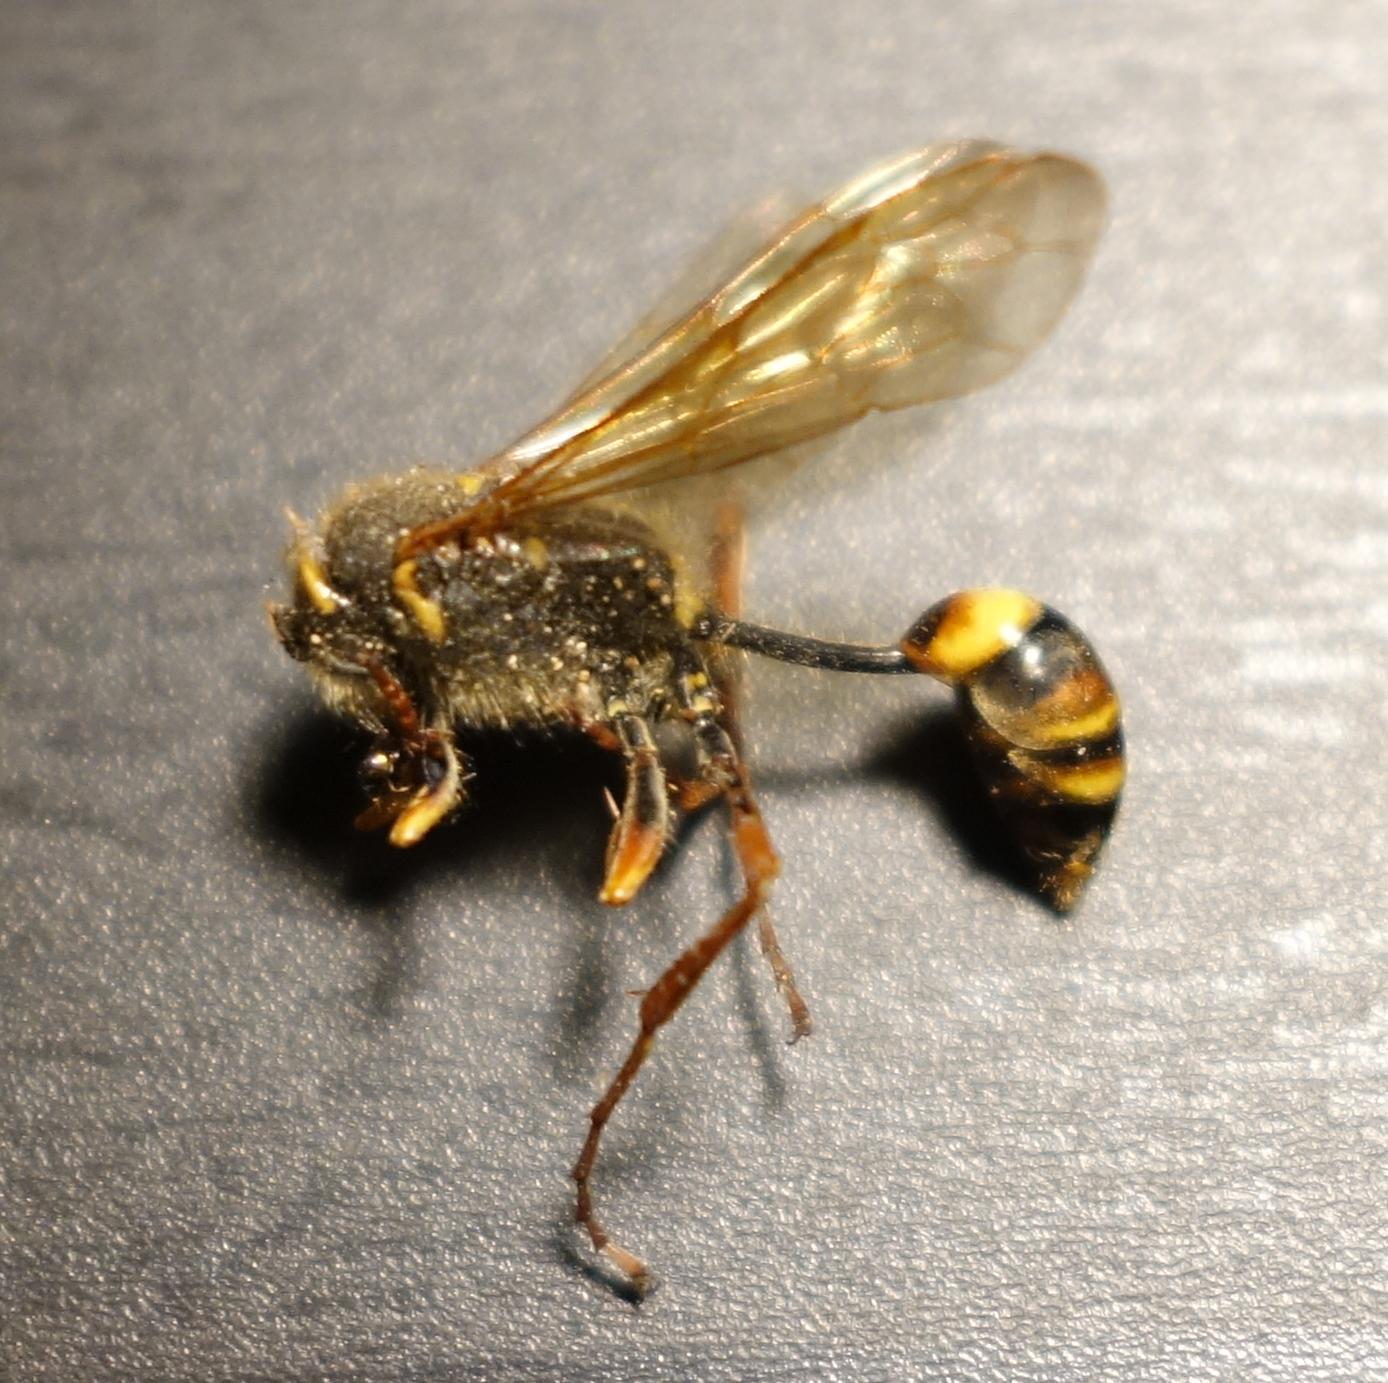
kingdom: Animalia
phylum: Arthropoda
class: Insecta
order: Hymenoptera
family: Sphecidae
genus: Sceliphron
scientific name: Sceliphron curvatum
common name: Pèlopèe
